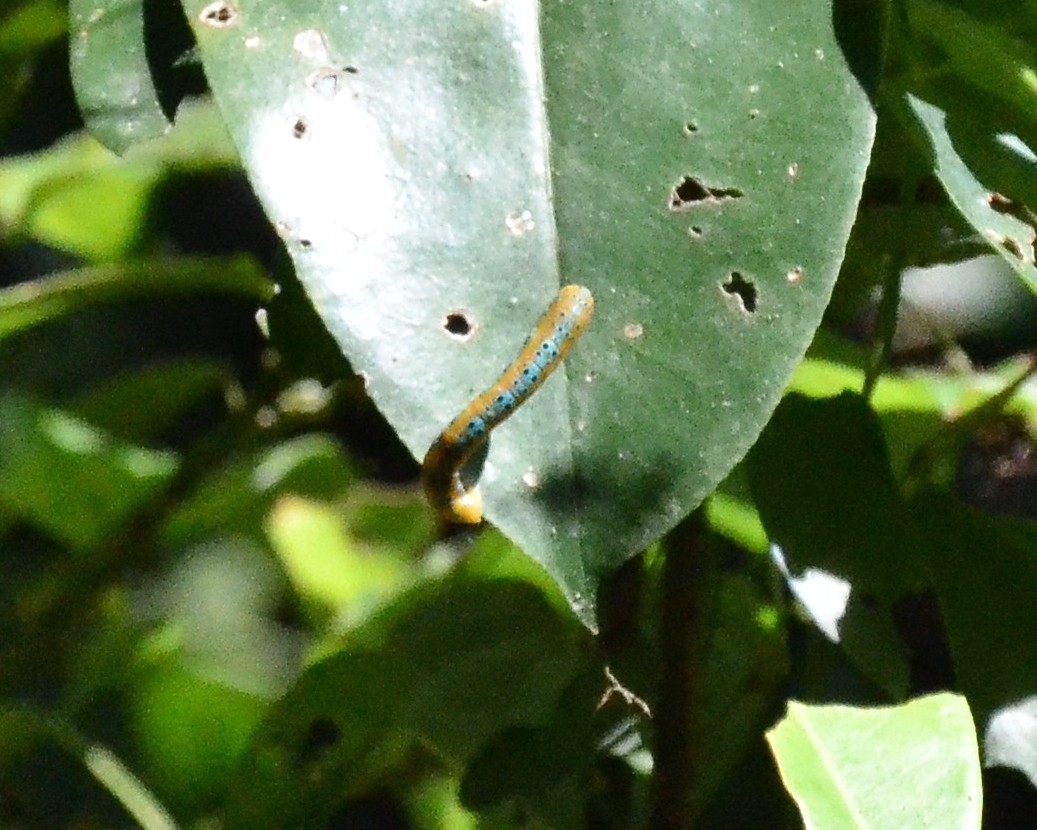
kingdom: Animalia
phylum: Arthropoda
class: Insecta
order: Lepidoptera
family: Geometridae
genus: Dysphania
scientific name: Dysphania percota
